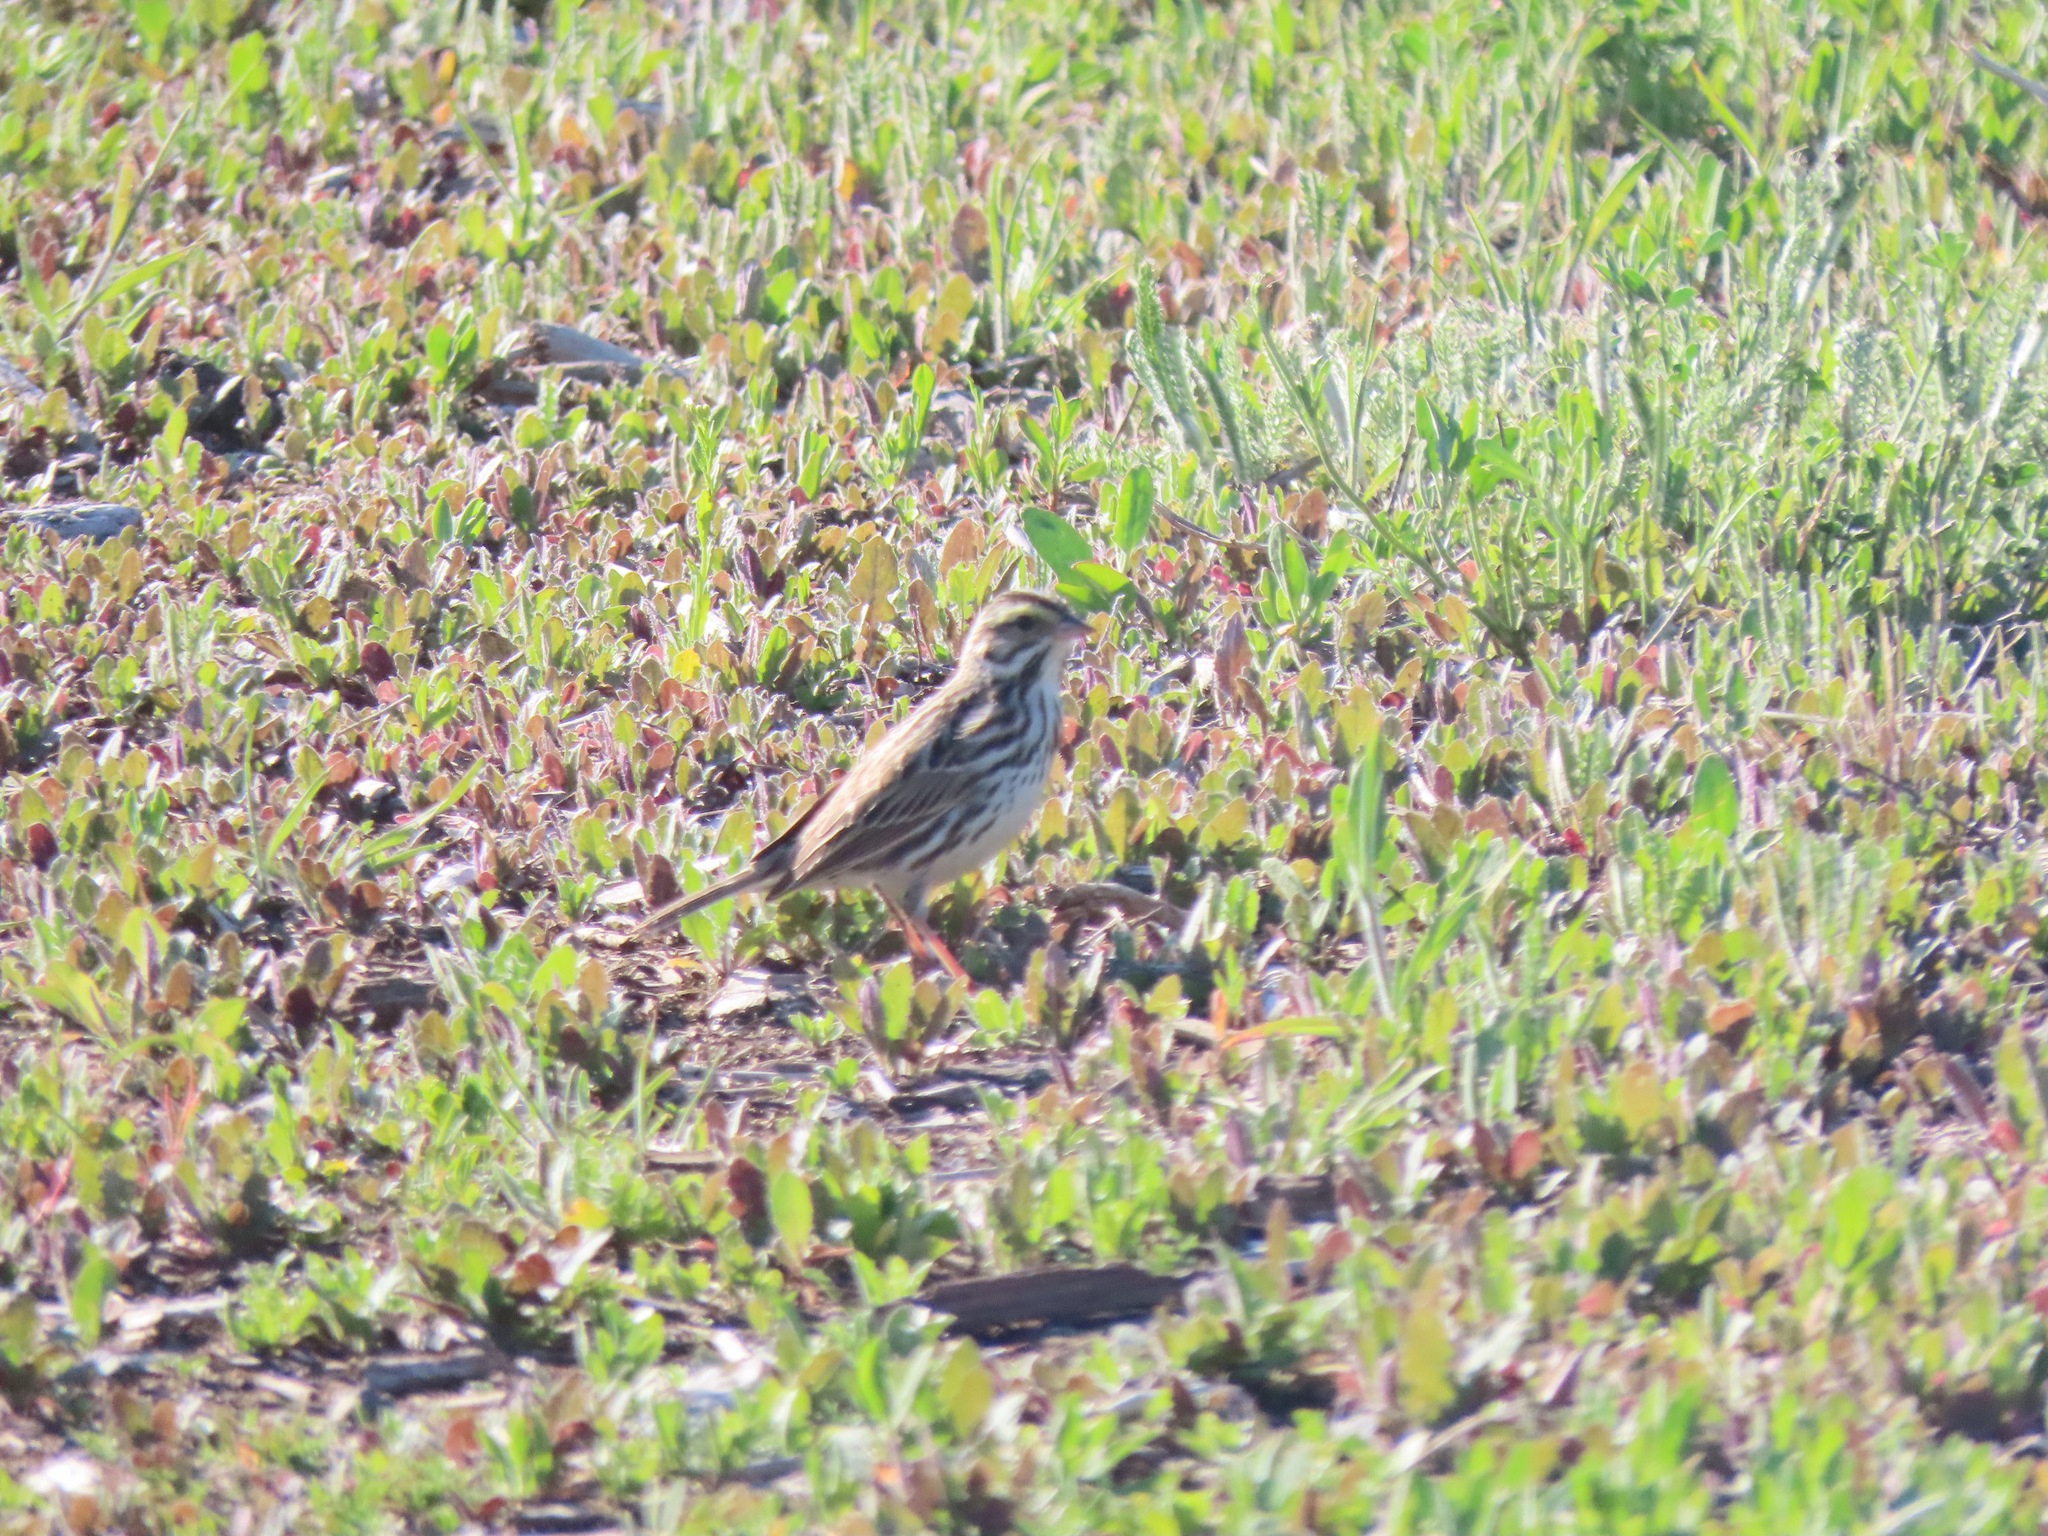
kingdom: Animalia
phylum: Chordata
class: Aves
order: Passeriformes
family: Passerellidae
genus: Passerculus
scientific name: Passerculus sandwichensis
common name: Savannah sparrow
